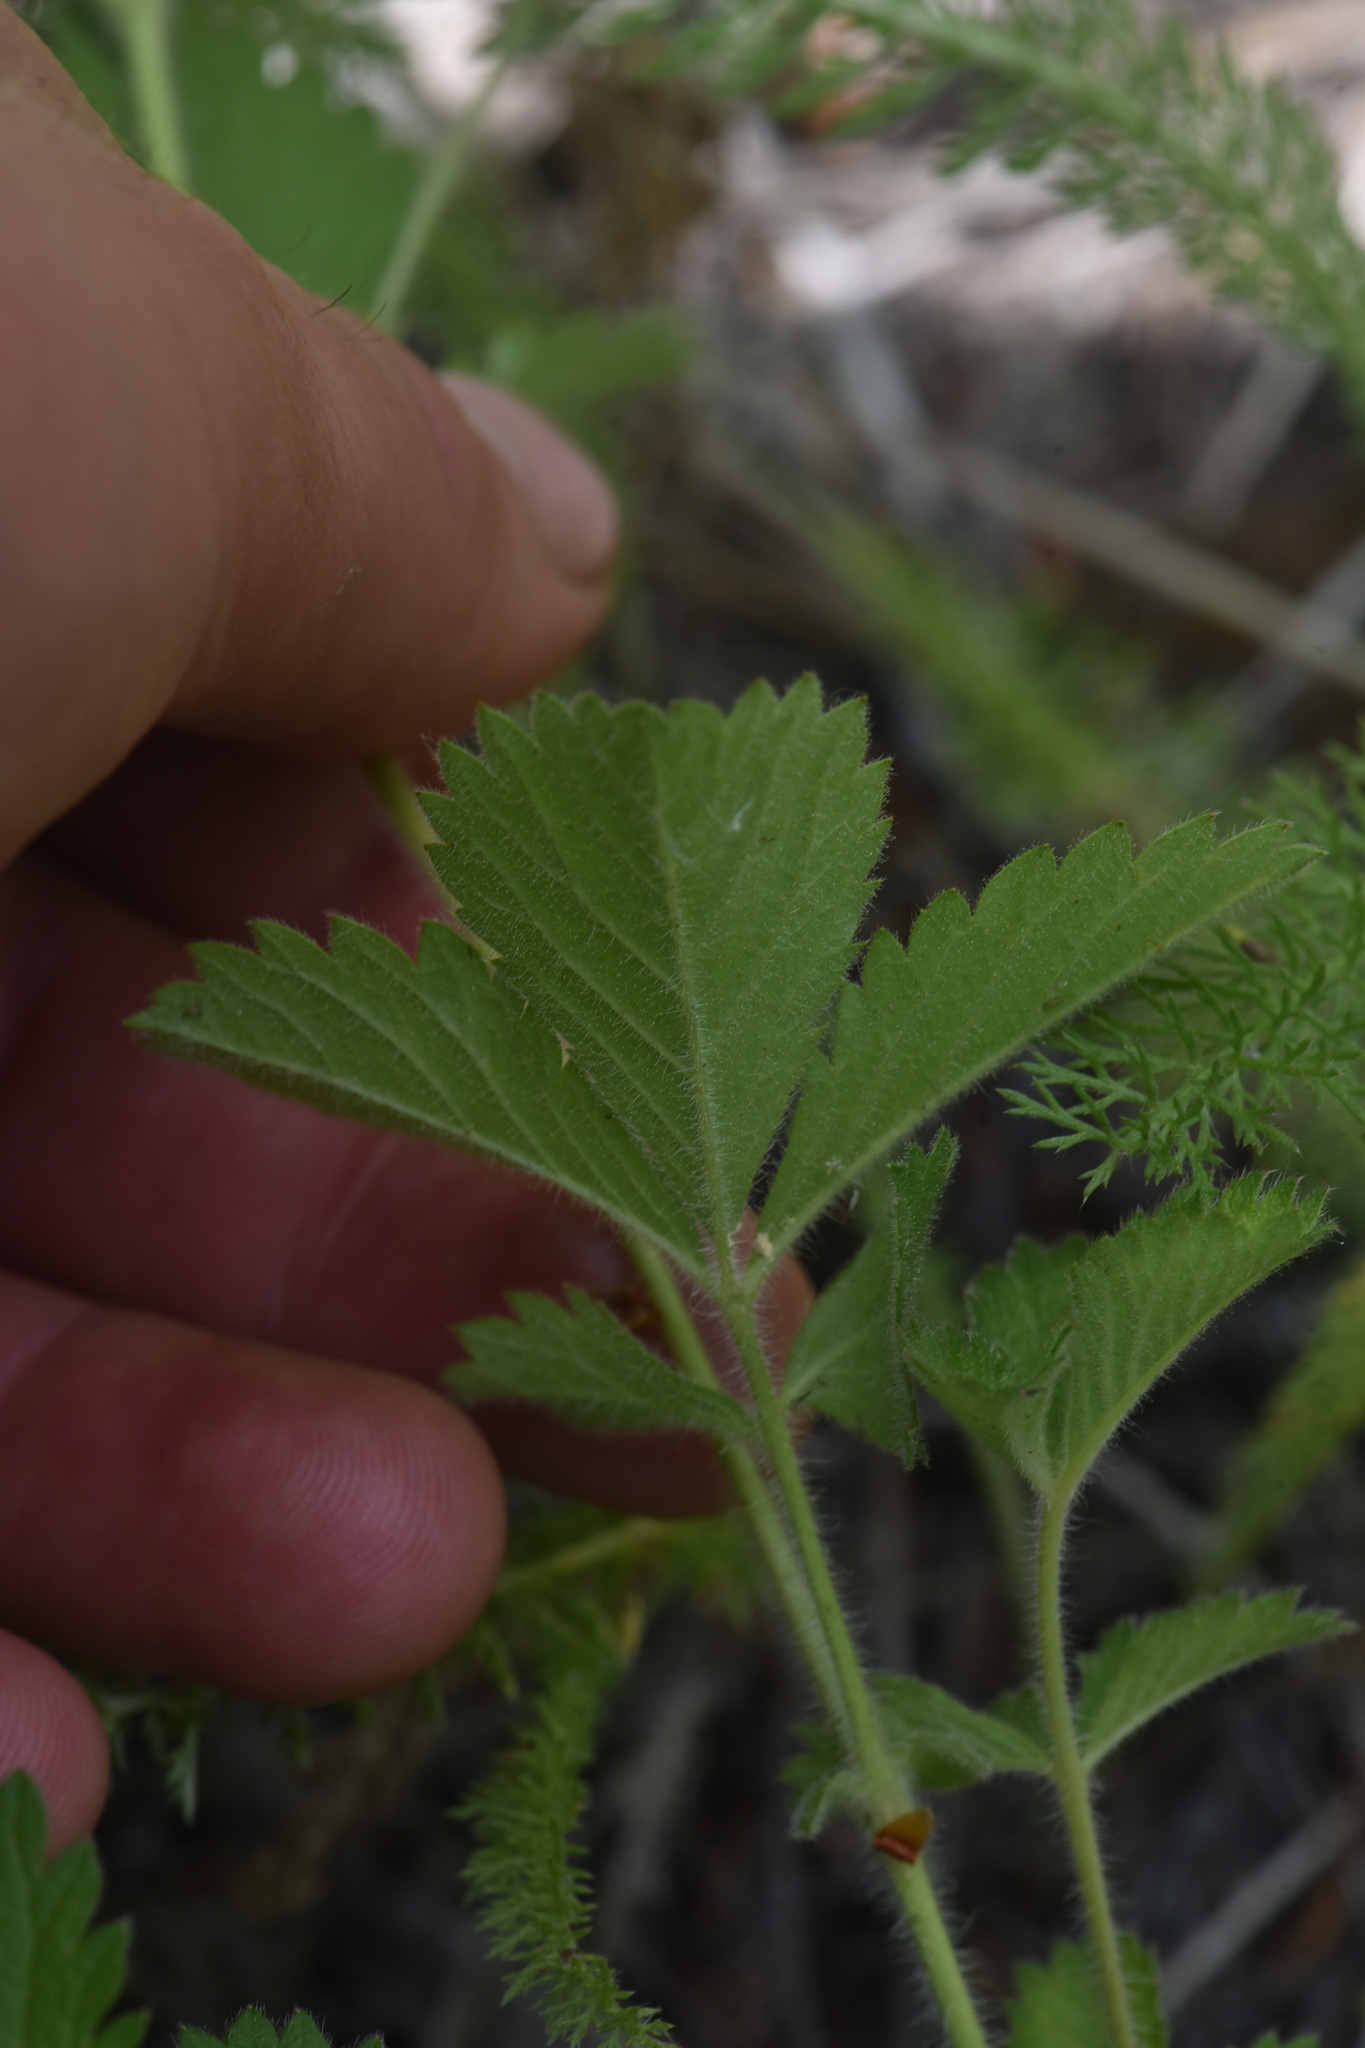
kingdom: Plantae
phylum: Tracheophyta
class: Magnoliopsida
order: Rosales
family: Rosaceae
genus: Drymocallis
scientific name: Drymocallis convallaria
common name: Cream cinquefoil
